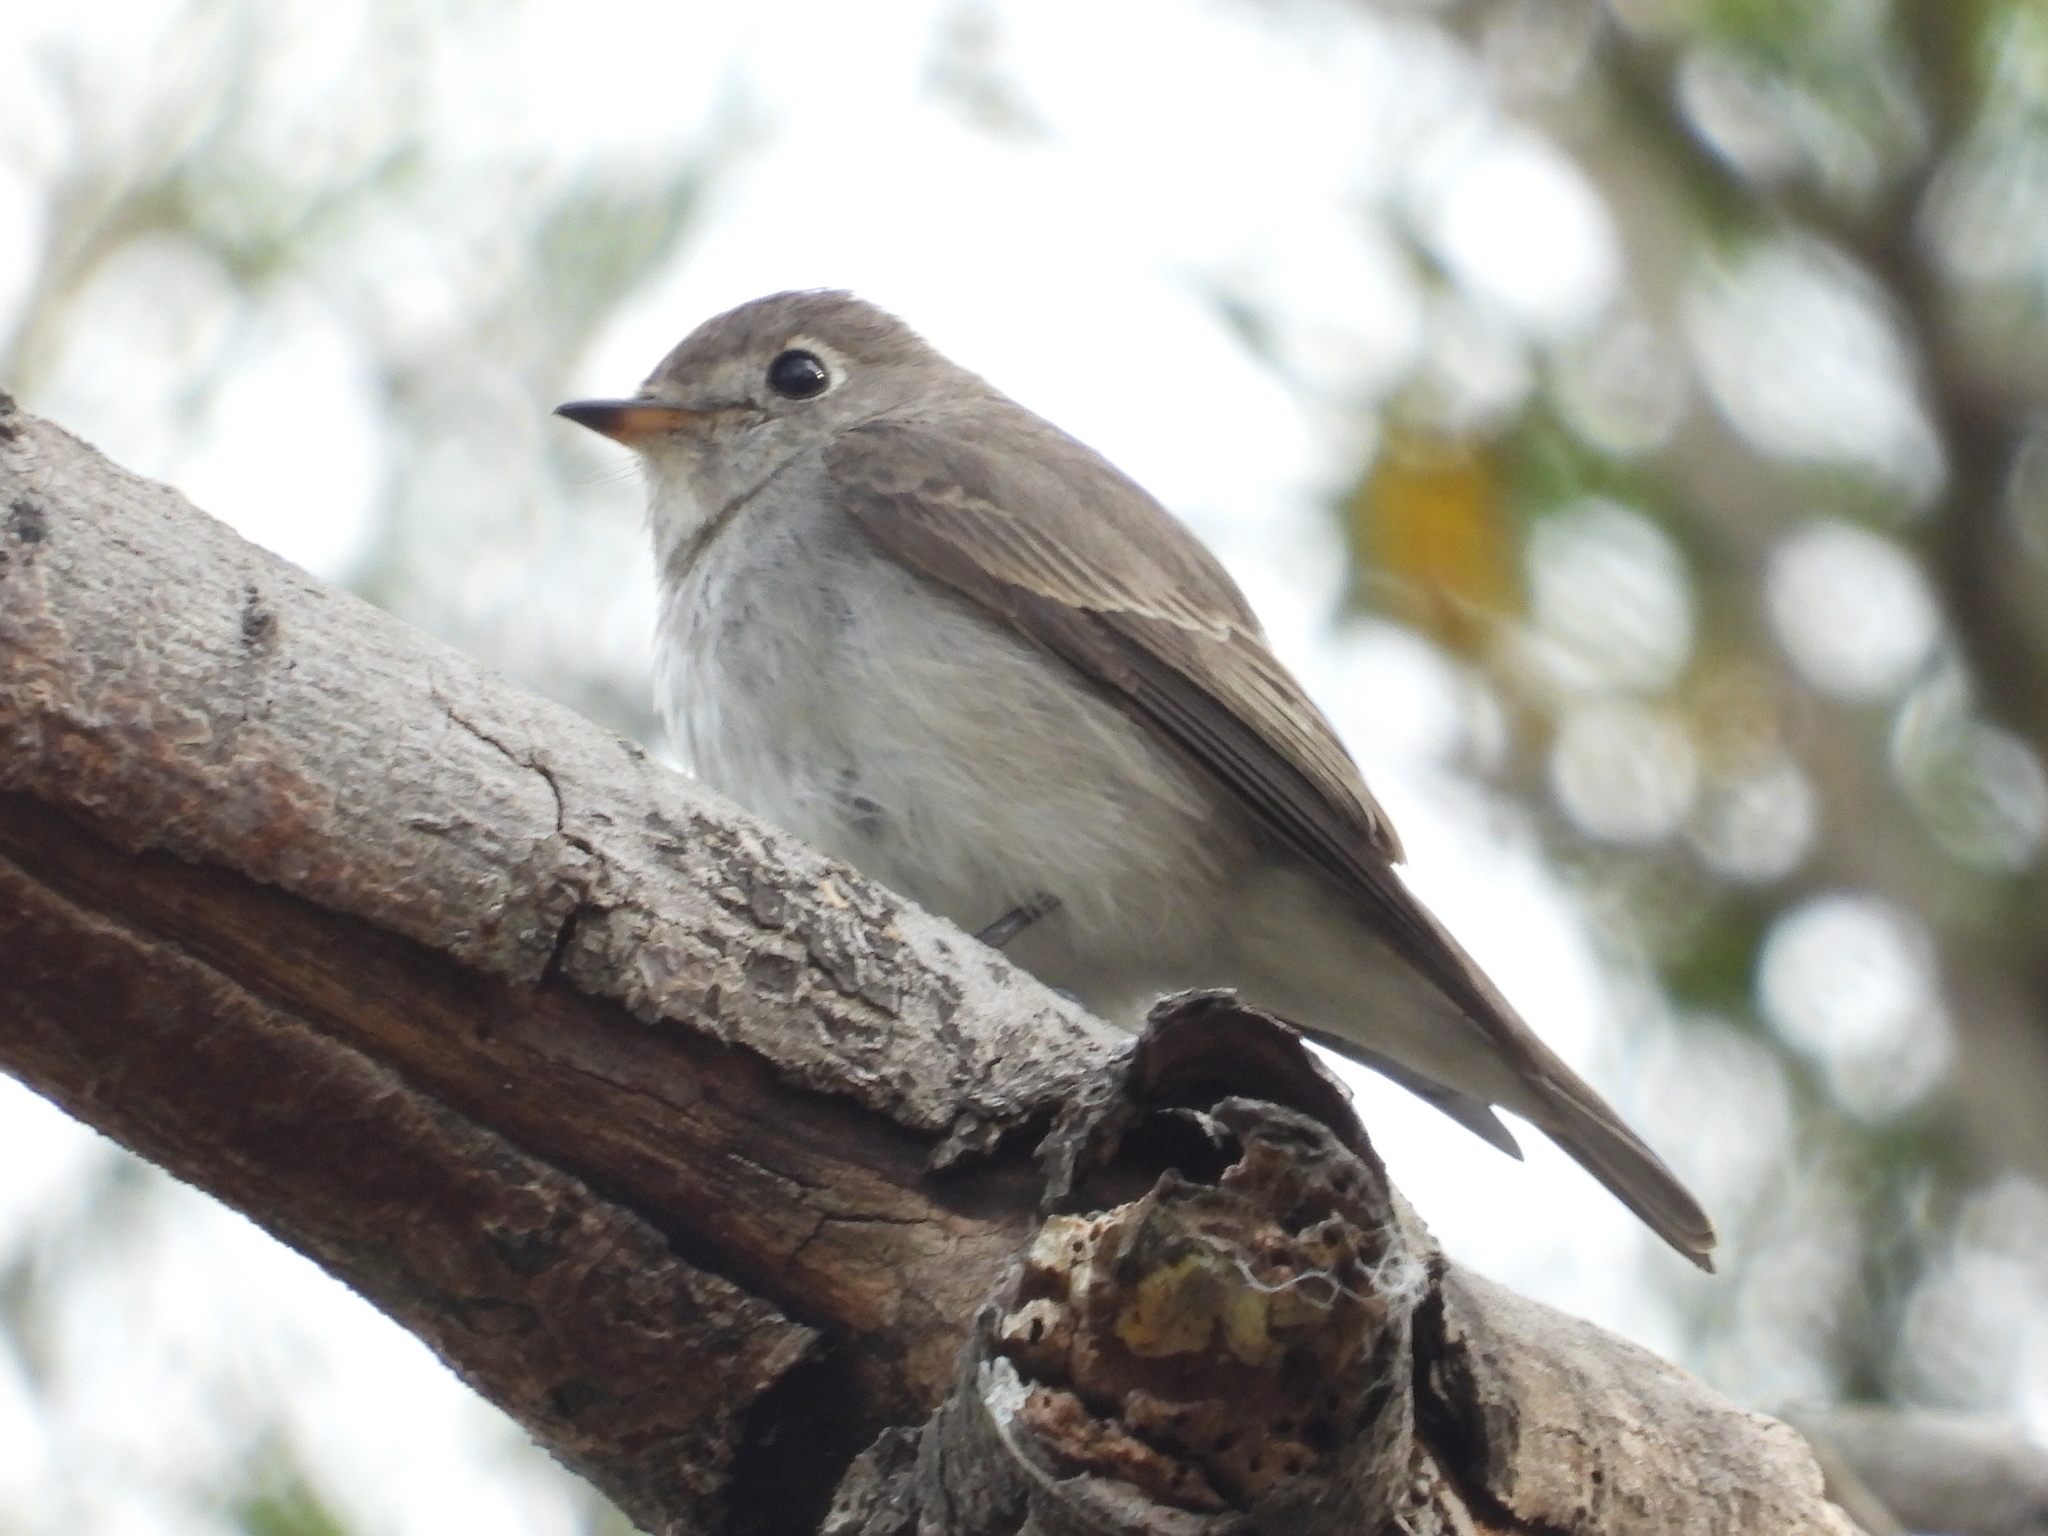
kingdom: Animalia
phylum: Chordata
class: Aves
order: Passeriformes
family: Muscicapidae
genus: Muscicapa
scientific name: Muscicapa latirostris
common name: Asian brown flycatcher
